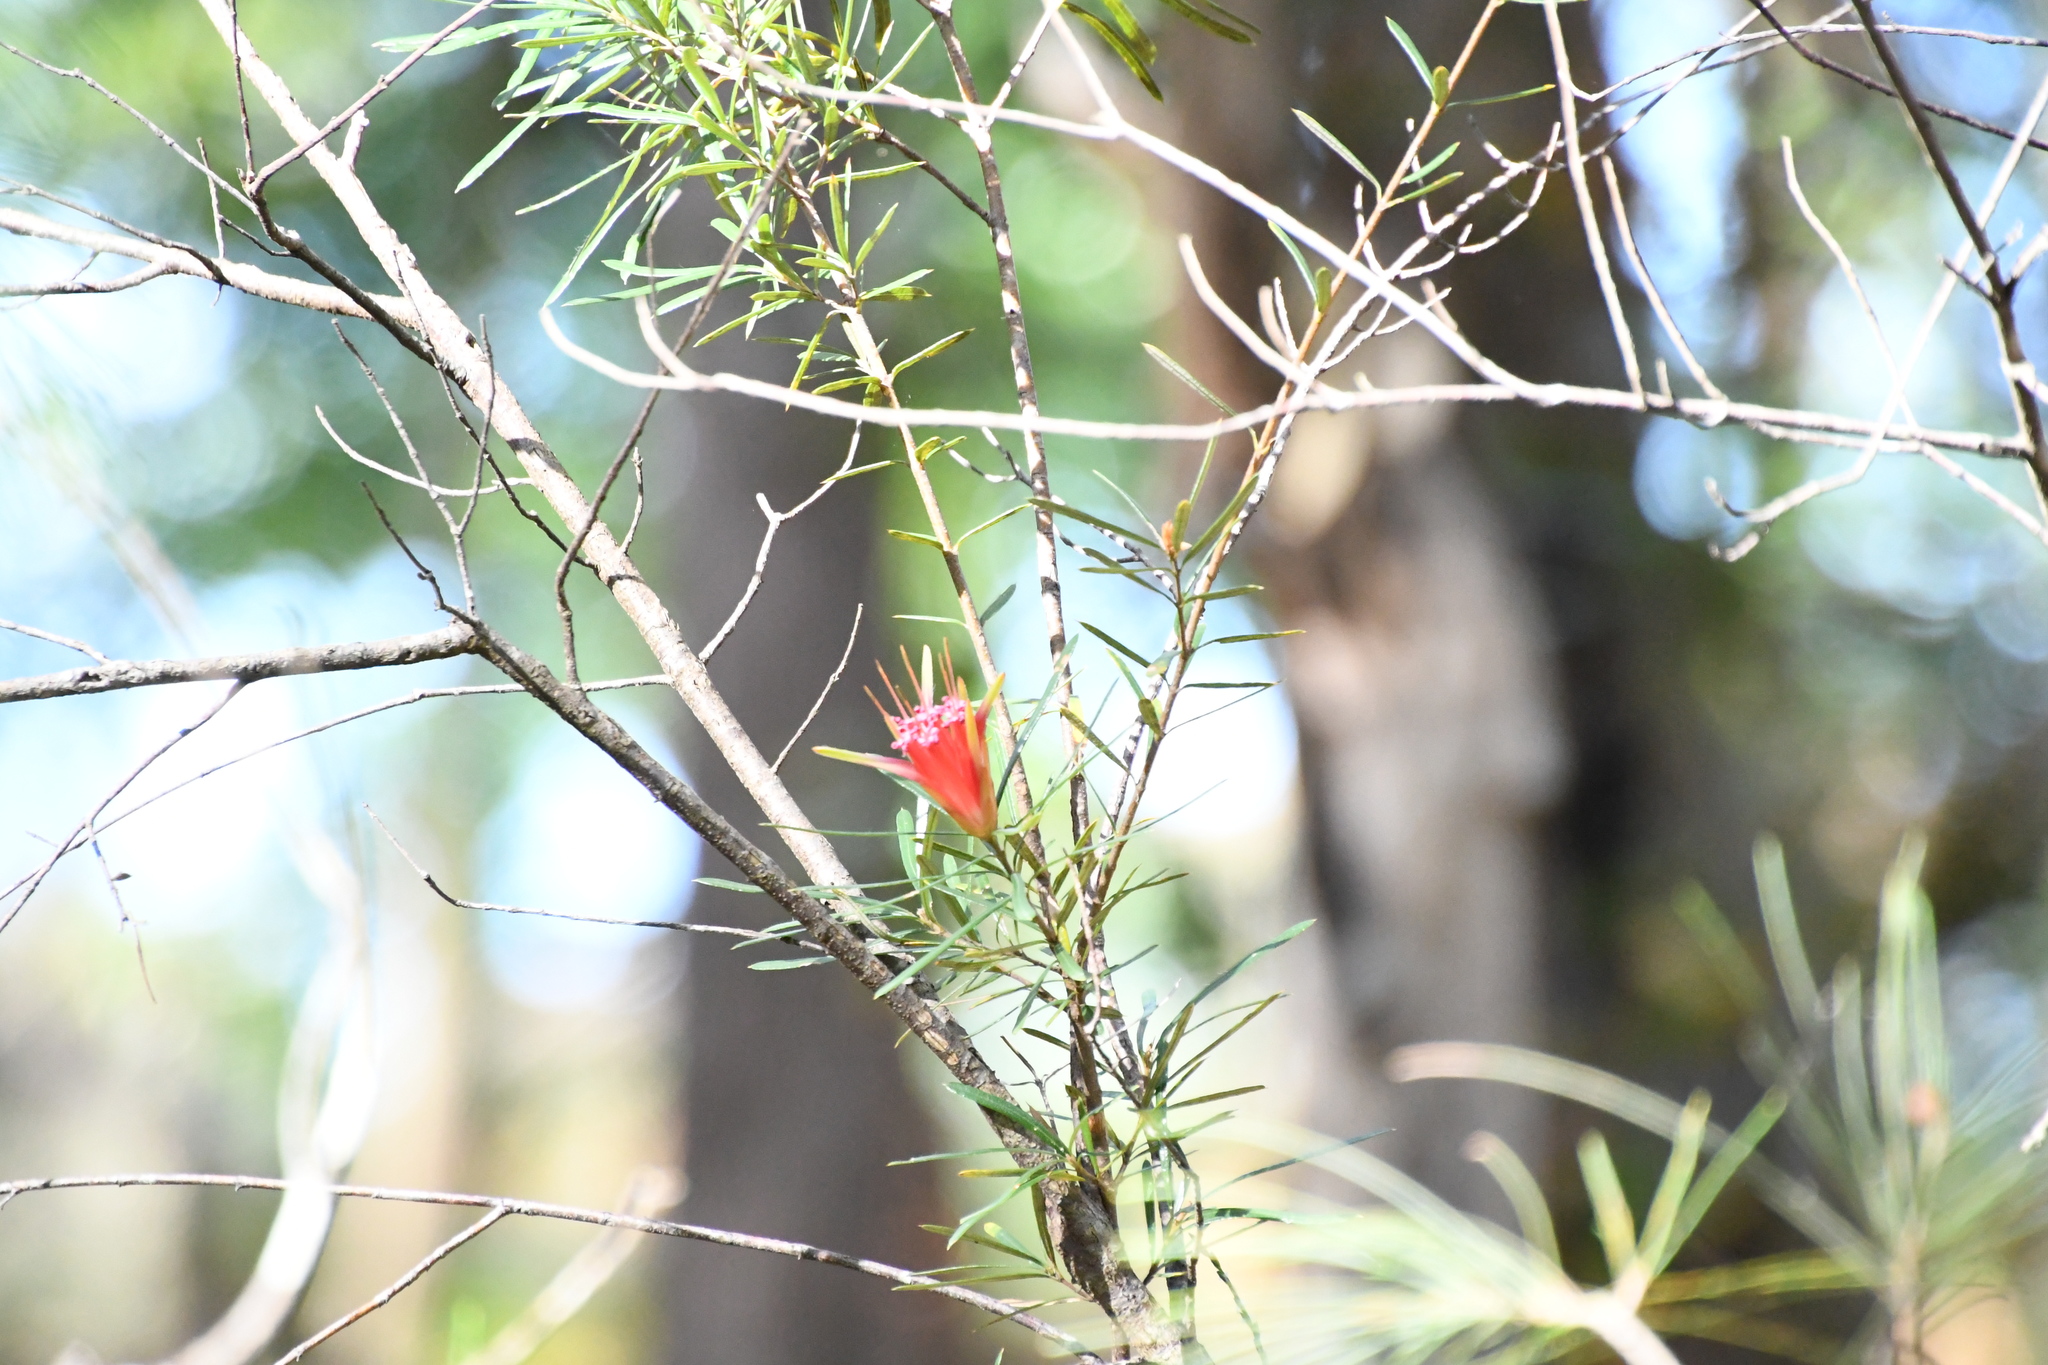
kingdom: Plantae
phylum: Tracheophyta
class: Magnoliopsida
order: Proteales
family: Proteaceae
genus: Lambertia
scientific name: Lambertia formosa
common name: Mountain-devil
